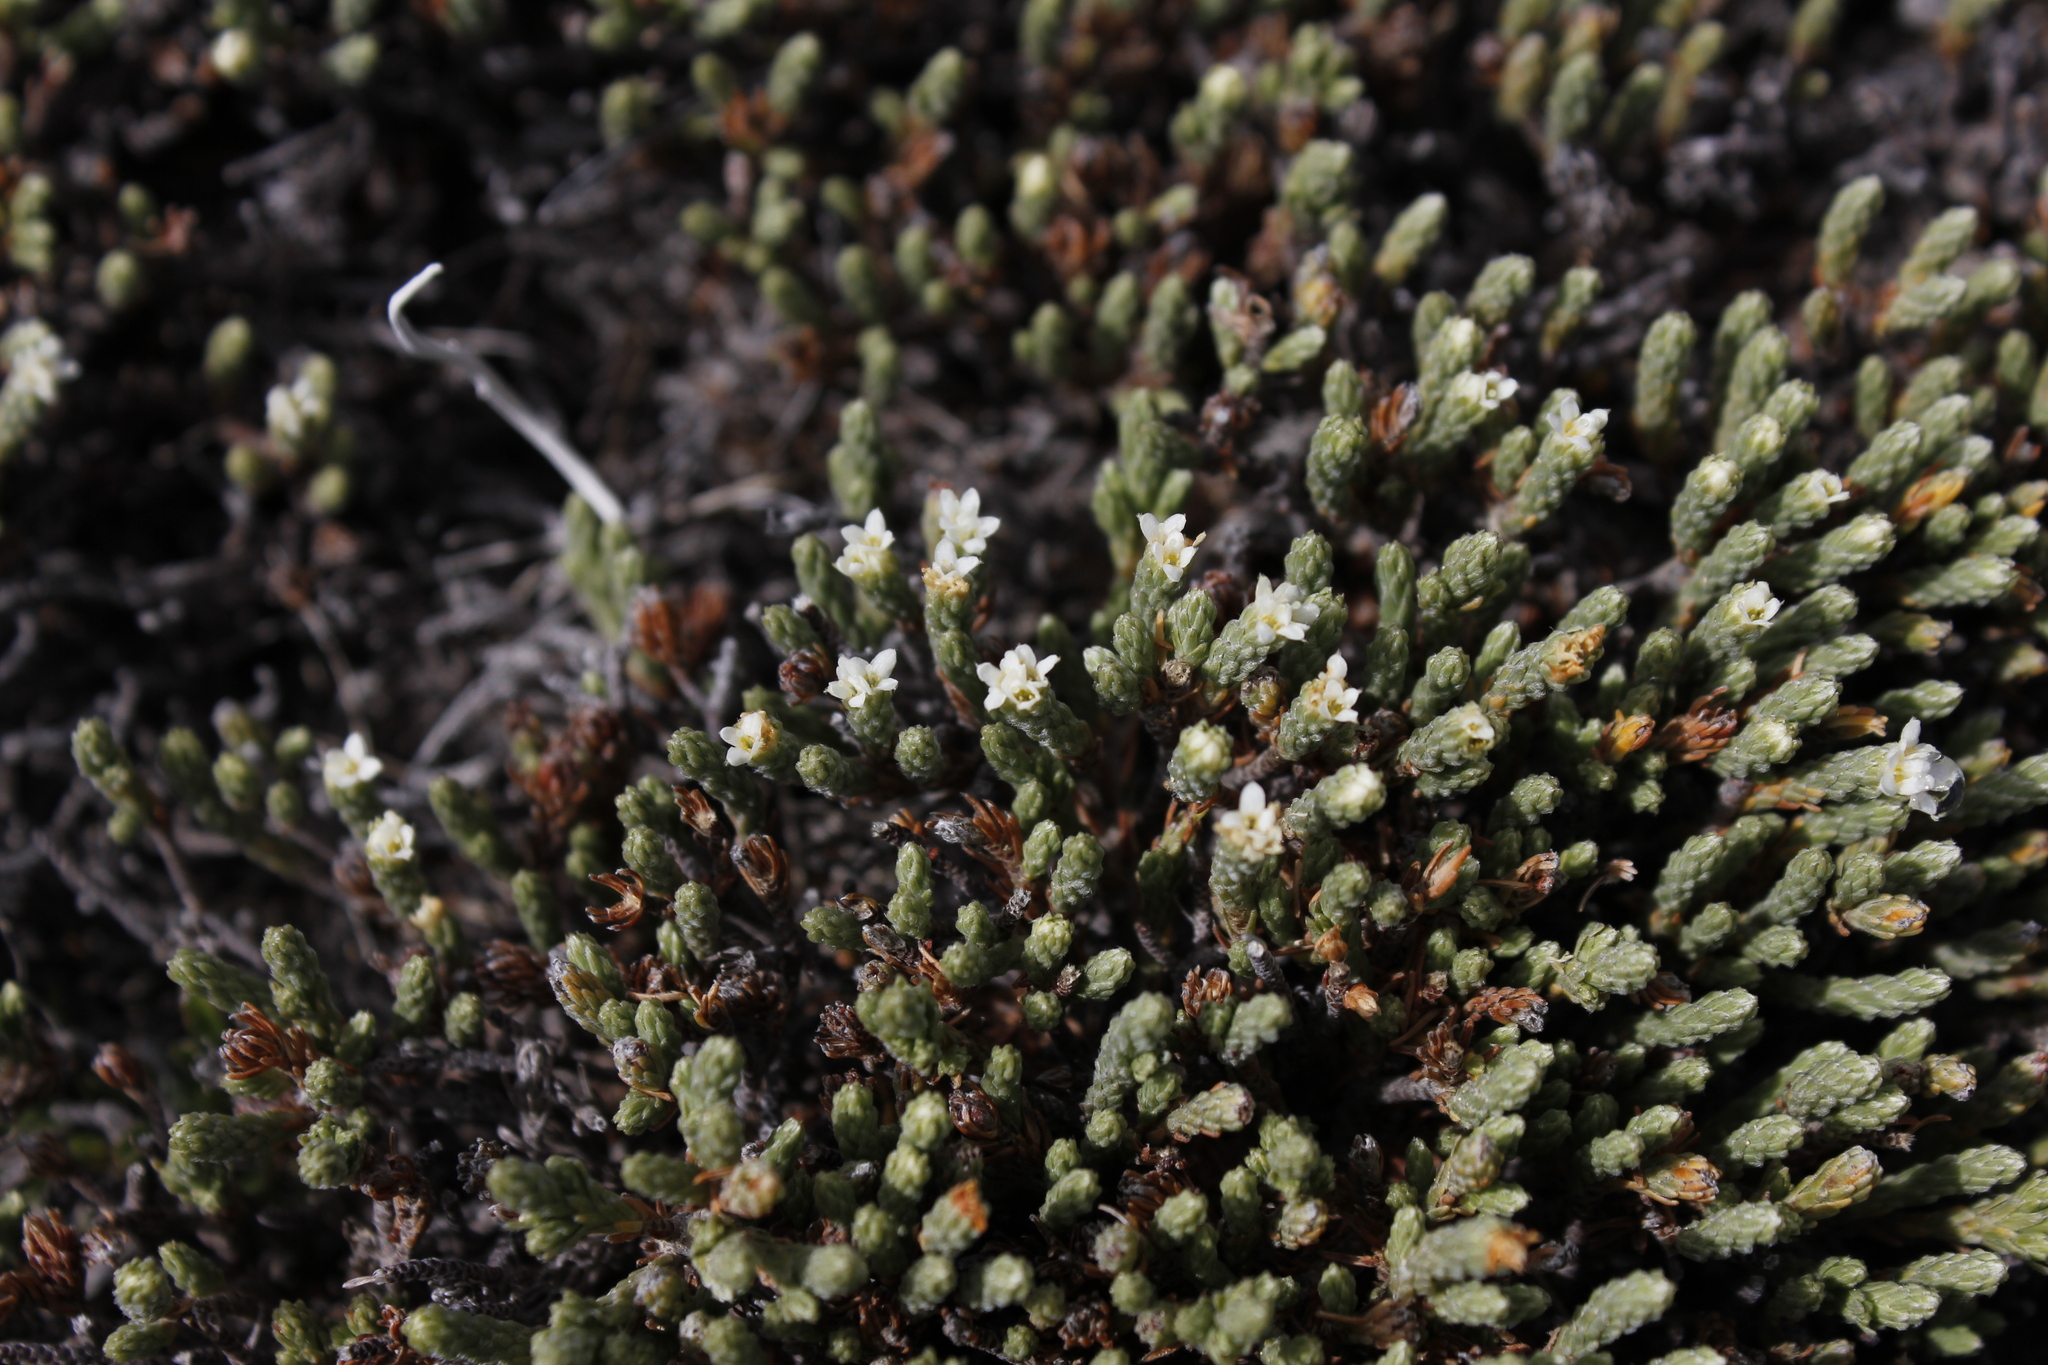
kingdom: Plantae
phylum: Tracheophyta
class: Magnoliopsida
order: Malvales
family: Thymelaeaceae
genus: Kelleria
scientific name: Kelleria dieffenbachii
